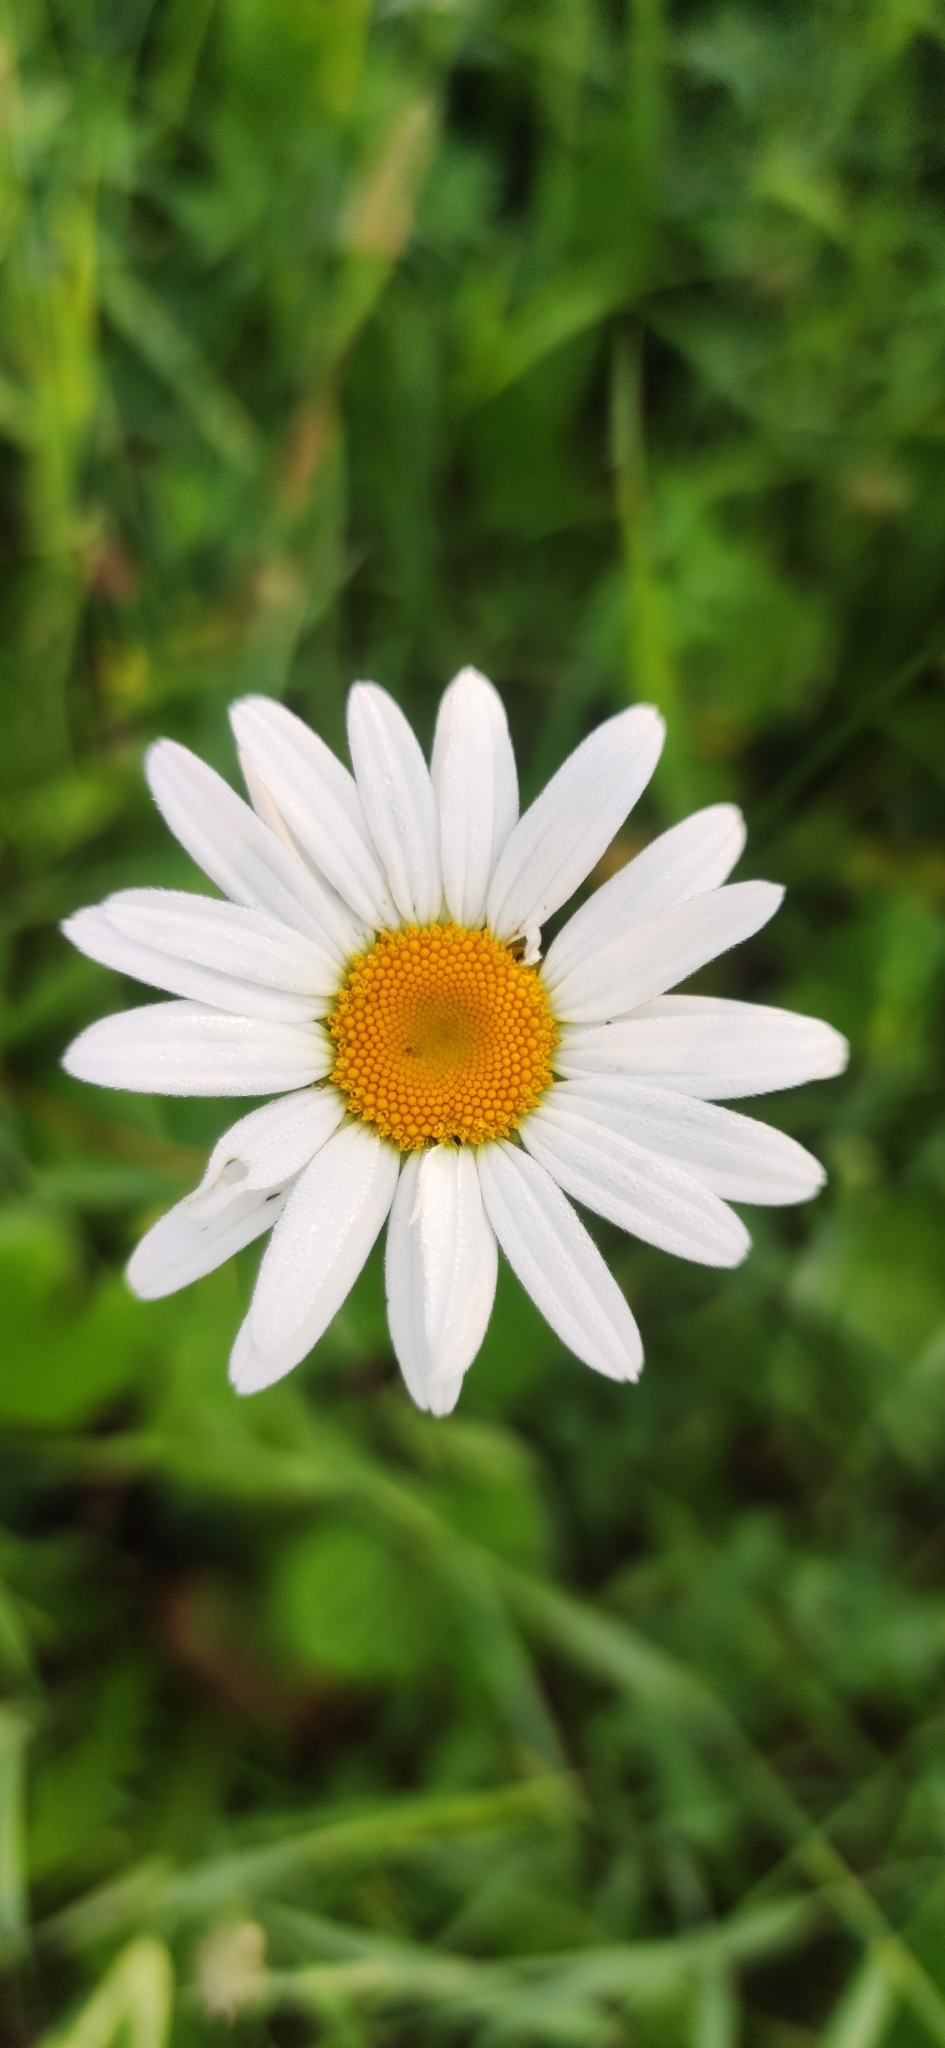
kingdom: Plantae
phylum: Tracheophyta
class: Magnoliopsida
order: Asterales
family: Asteraceae
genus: Leucanthemum
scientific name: Leucanthemum vulgare
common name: Oxeye daisy
